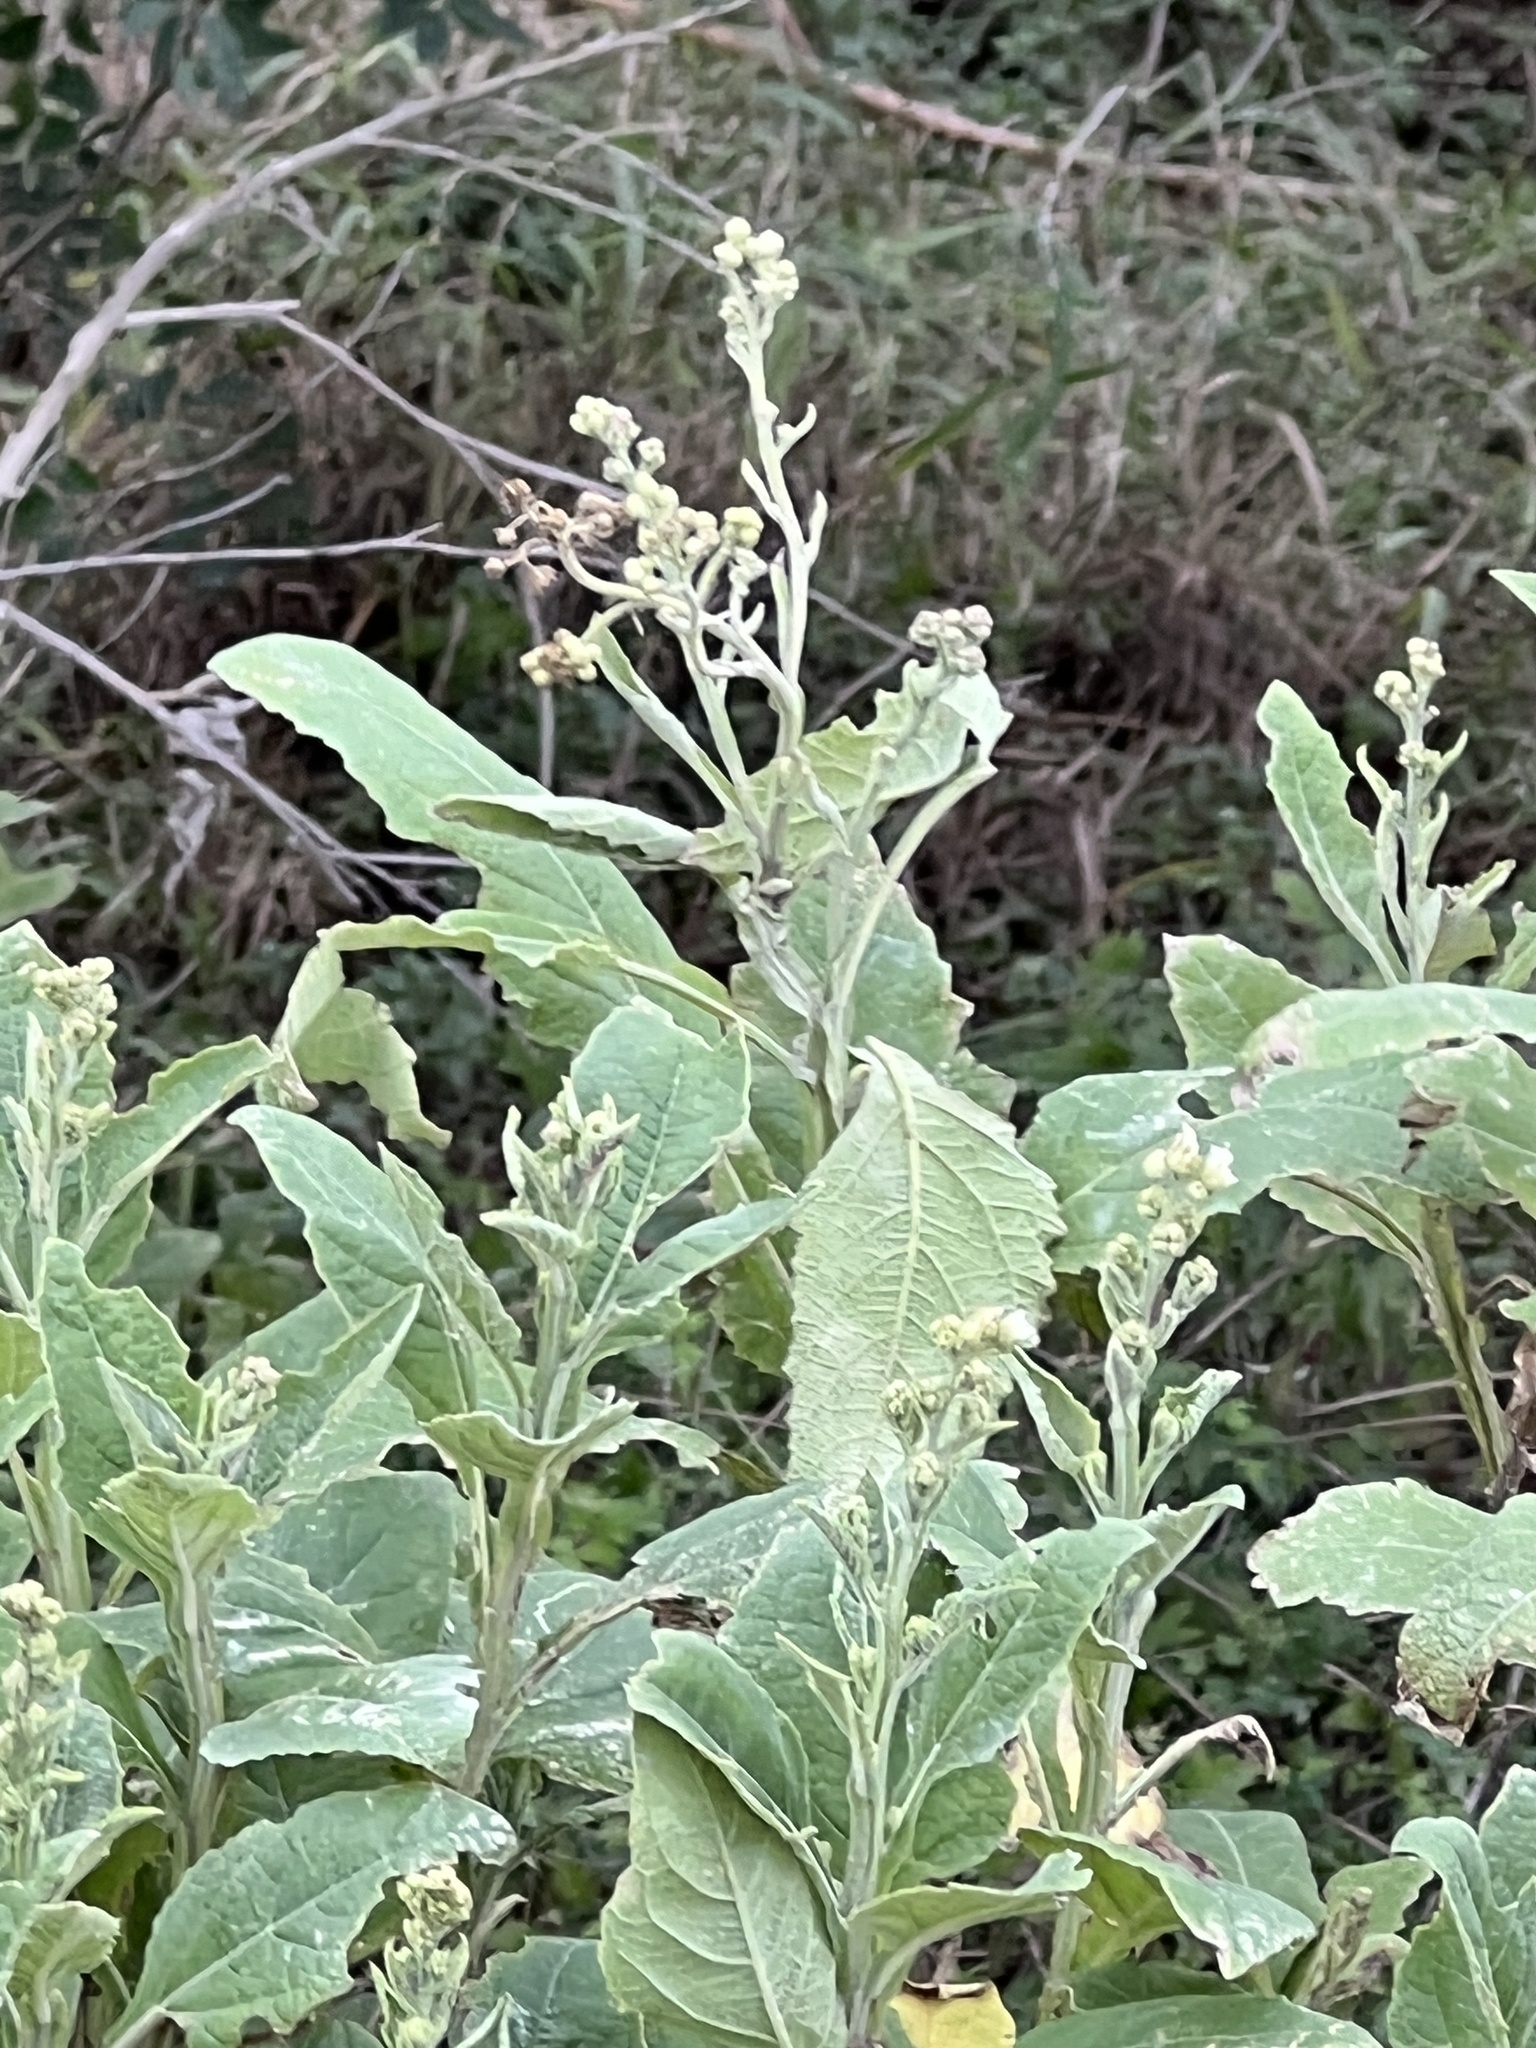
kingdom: Plantae
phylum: Tracheophyta
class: Magnoliopsida
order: Asterales
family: Asteraceae
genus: Verbesina
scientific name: Verbesina microptera
